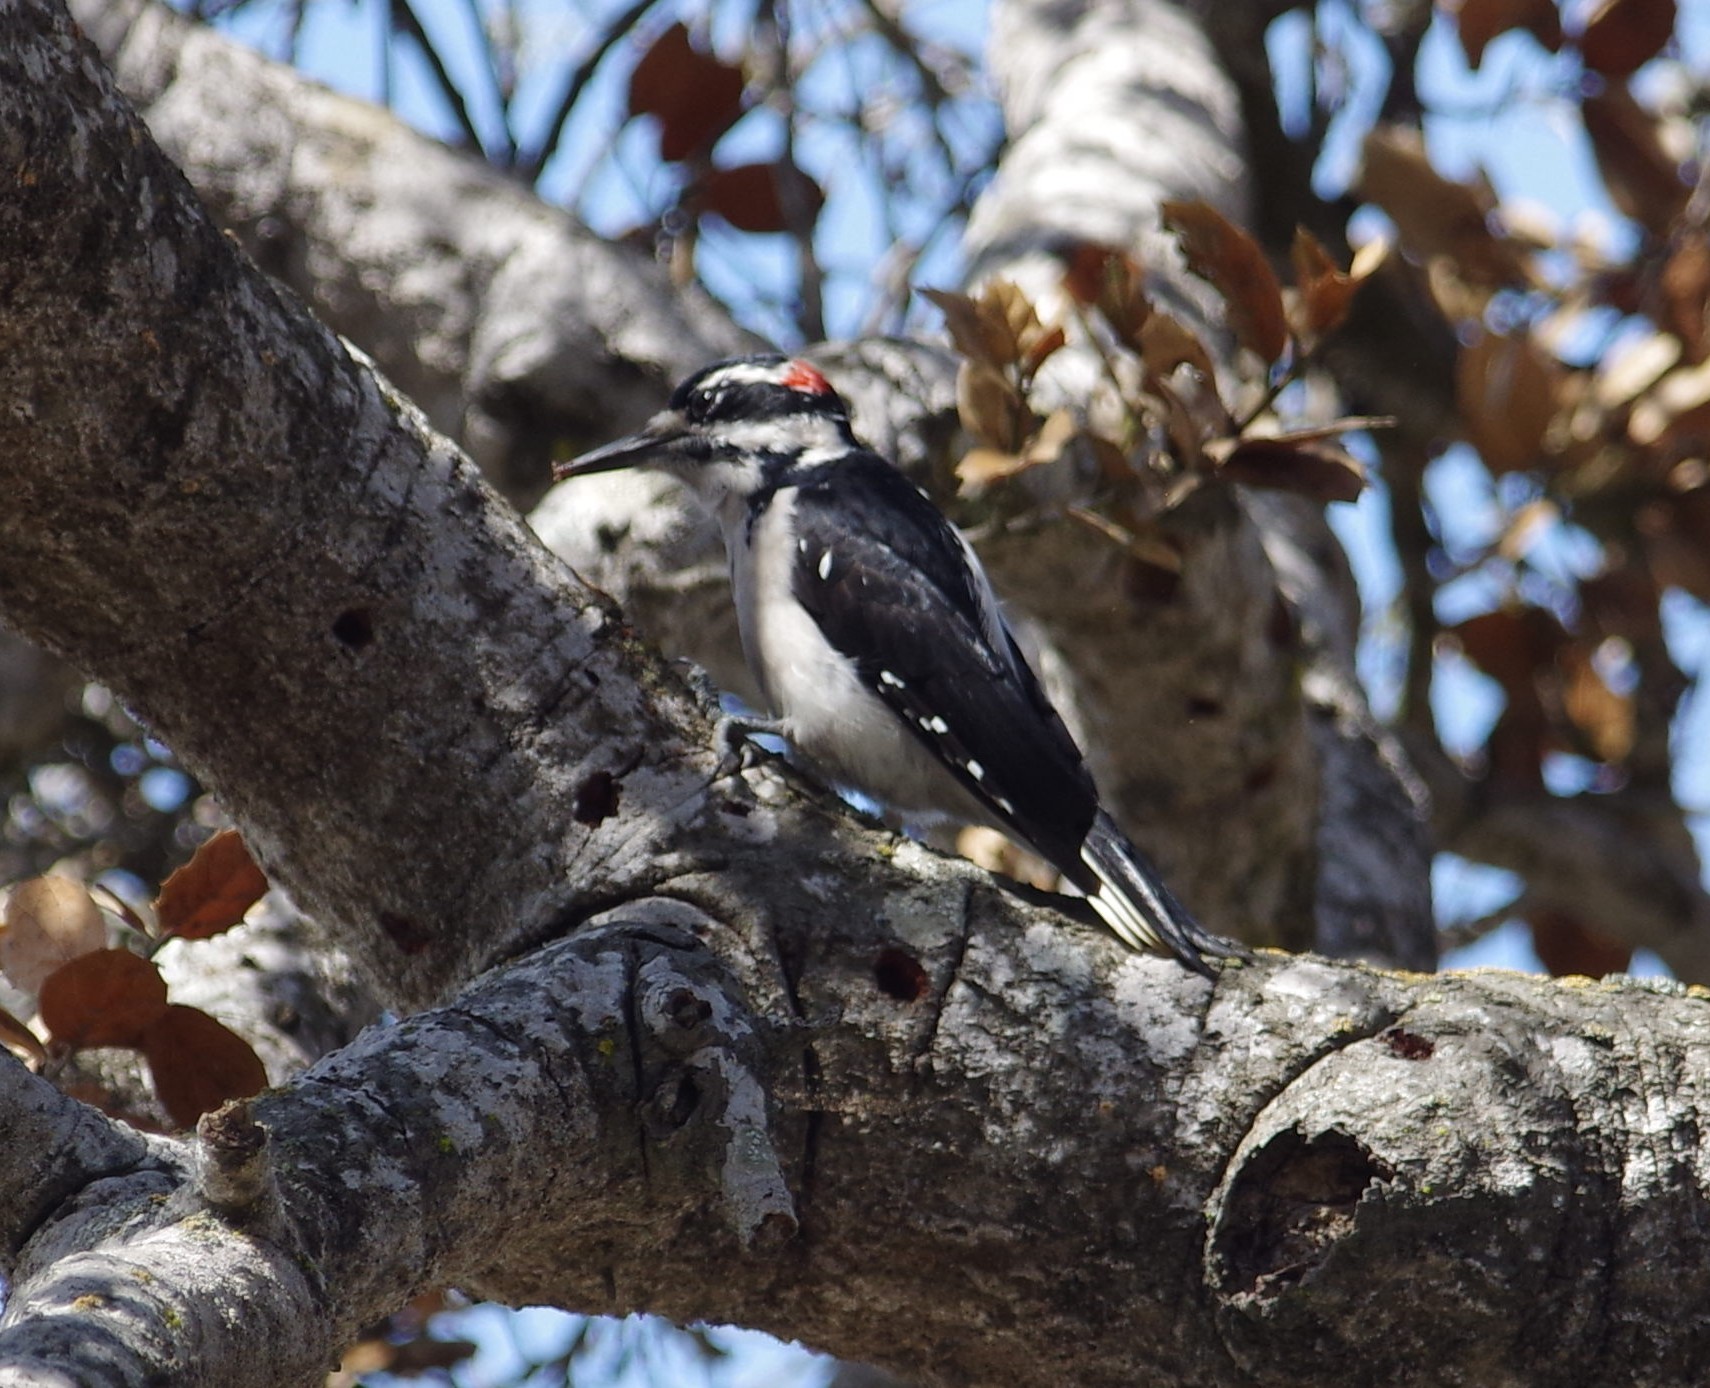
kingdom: Animalia
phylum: Chordata
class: Aves
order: Piciformes
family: Picidae
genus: Leuconotopicus
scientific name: Leuconotopicus villosus
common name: Hairy woodpecker
